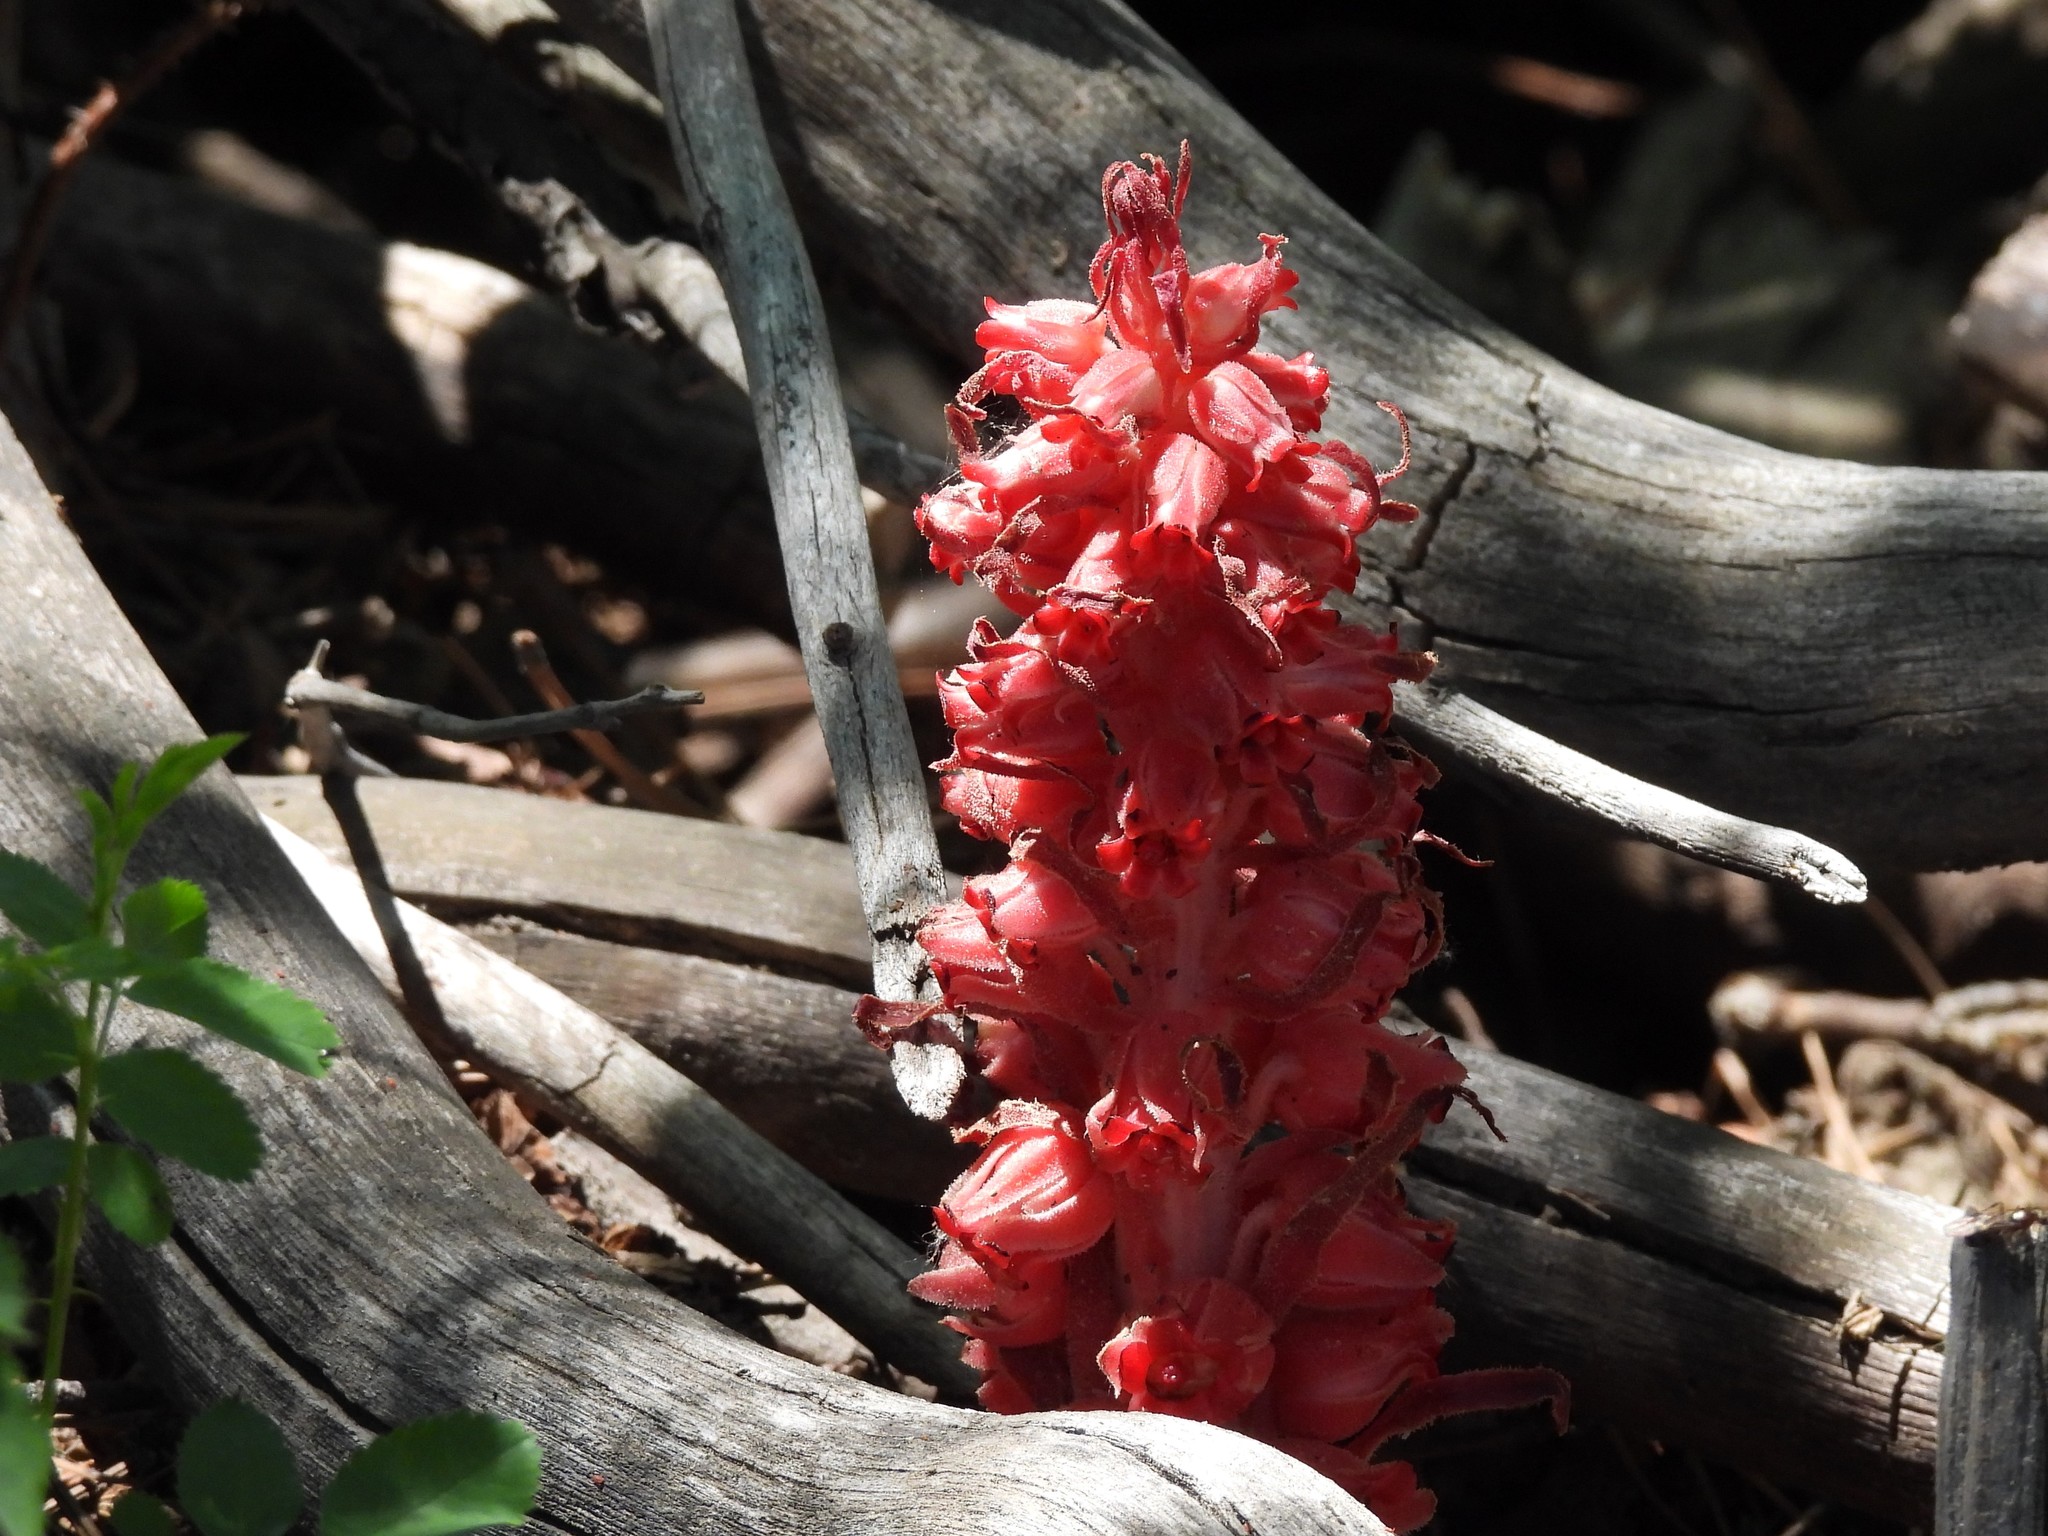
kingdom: Plantae
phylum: Tracheophyta
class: Magnoliopsida
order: Ericales
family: Ericaceae
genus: Sarcodes
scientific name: Sarcodes sanguinea
